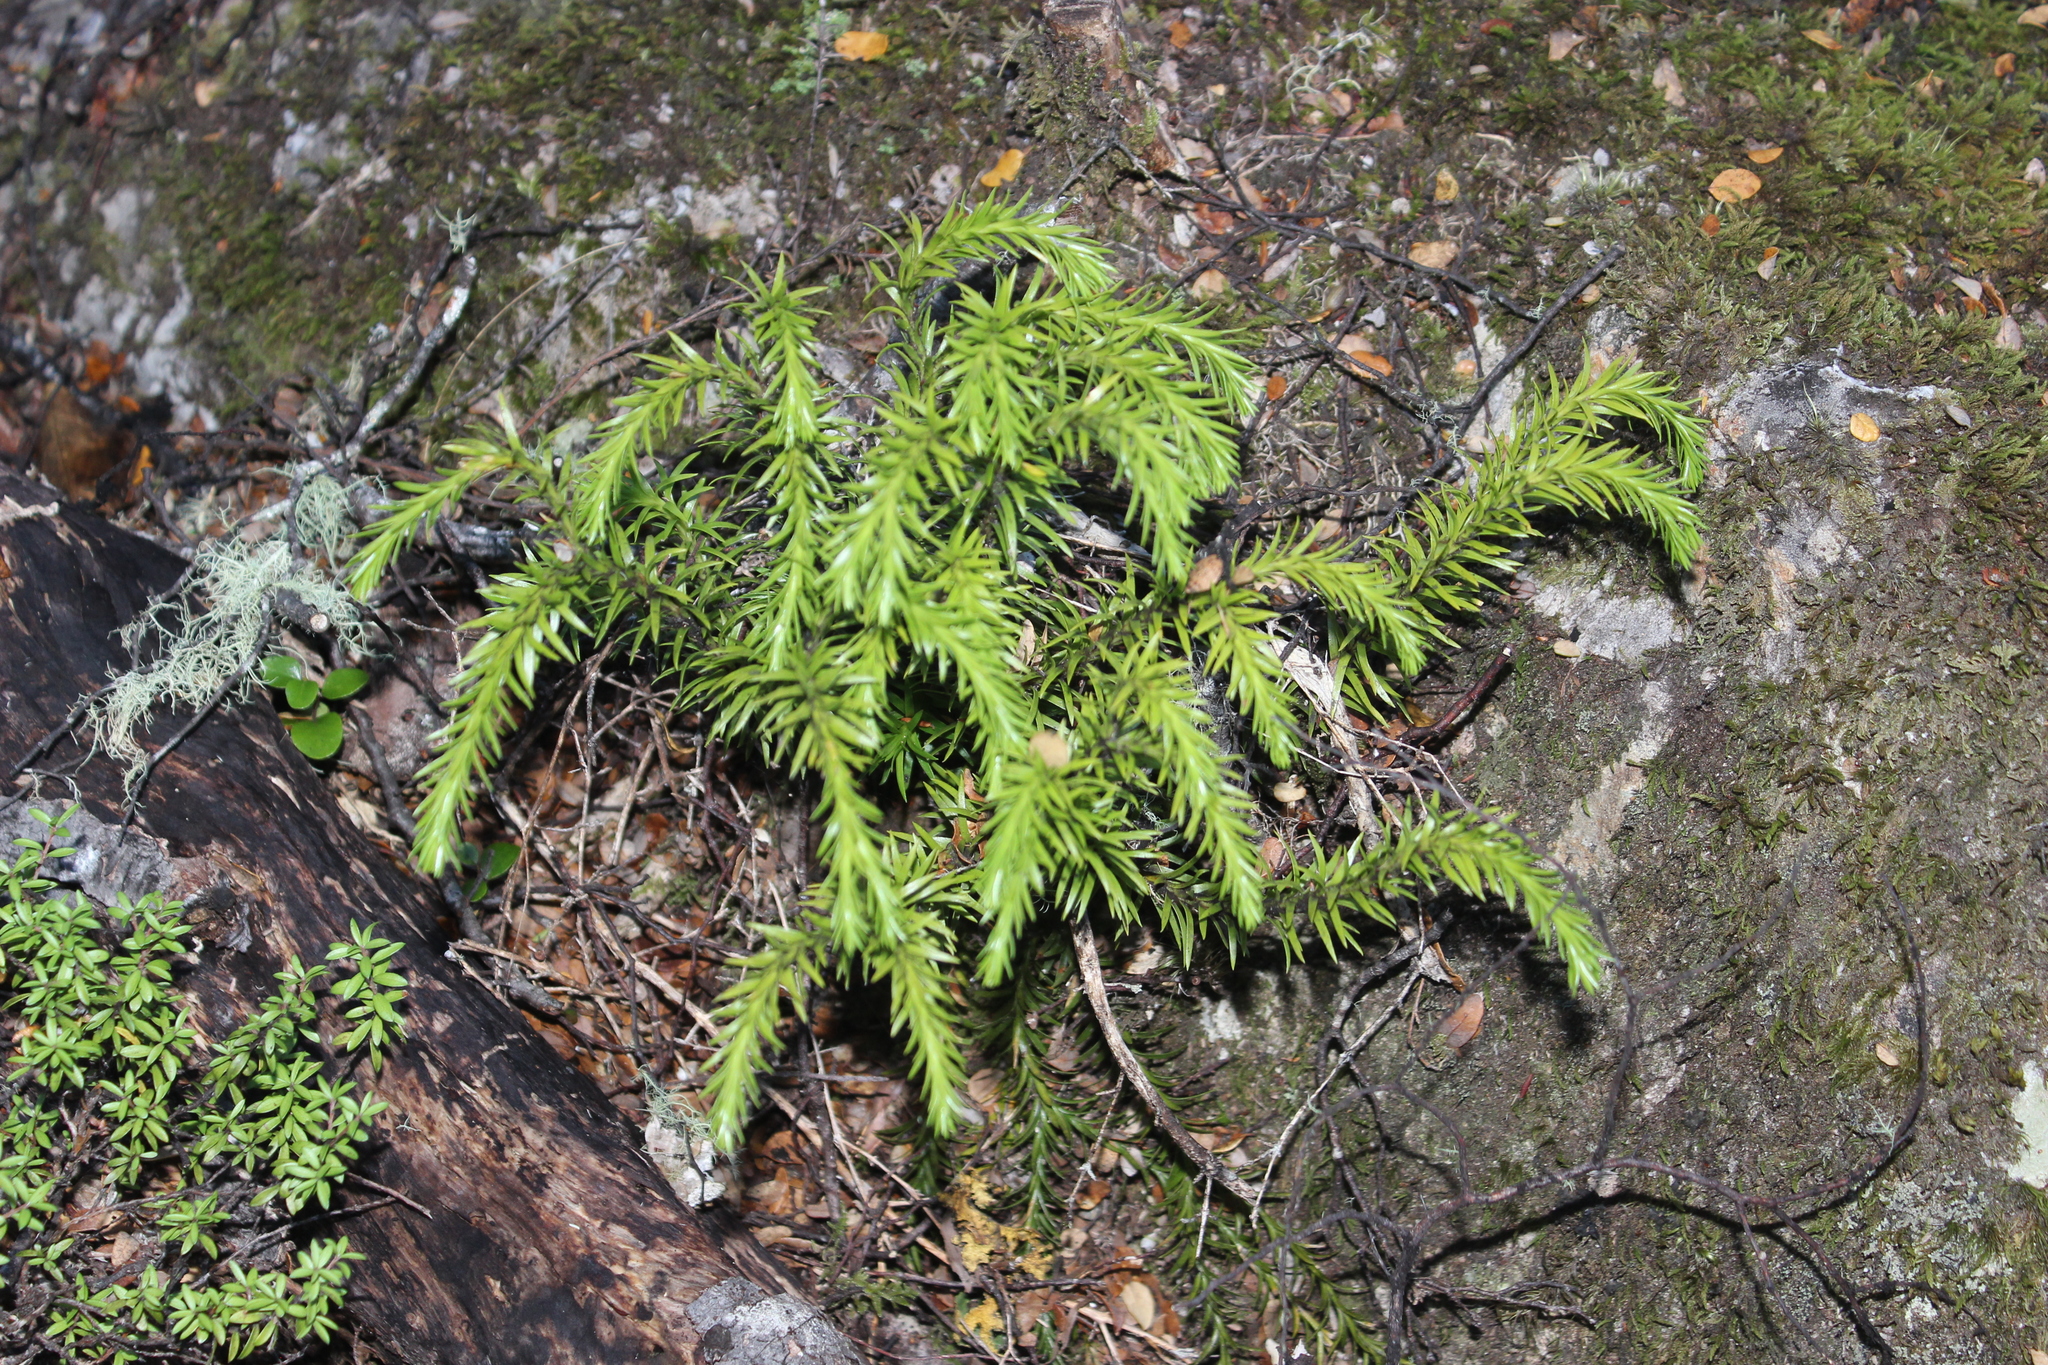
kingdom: Plantae
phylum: Tracheophyta
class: Lycopodiopsida
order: Lycopodiales
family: Lycopodiaceae
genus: Phlegmariurus
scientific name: Phlegmariurus
